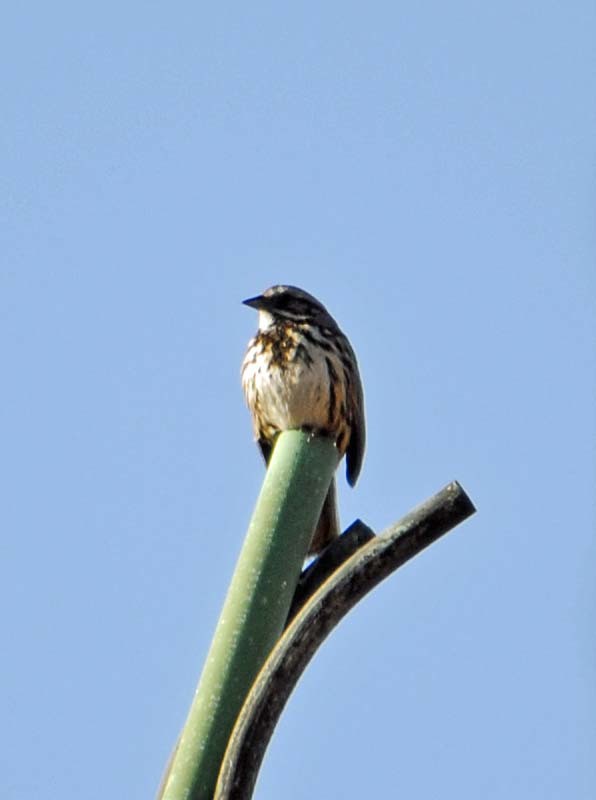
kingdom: Animalia
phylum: Chordata
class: Aves
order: Passeriformes
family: Passerellidae
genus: Melospiza
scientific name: Melospiza melodia
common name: Song sparrow
